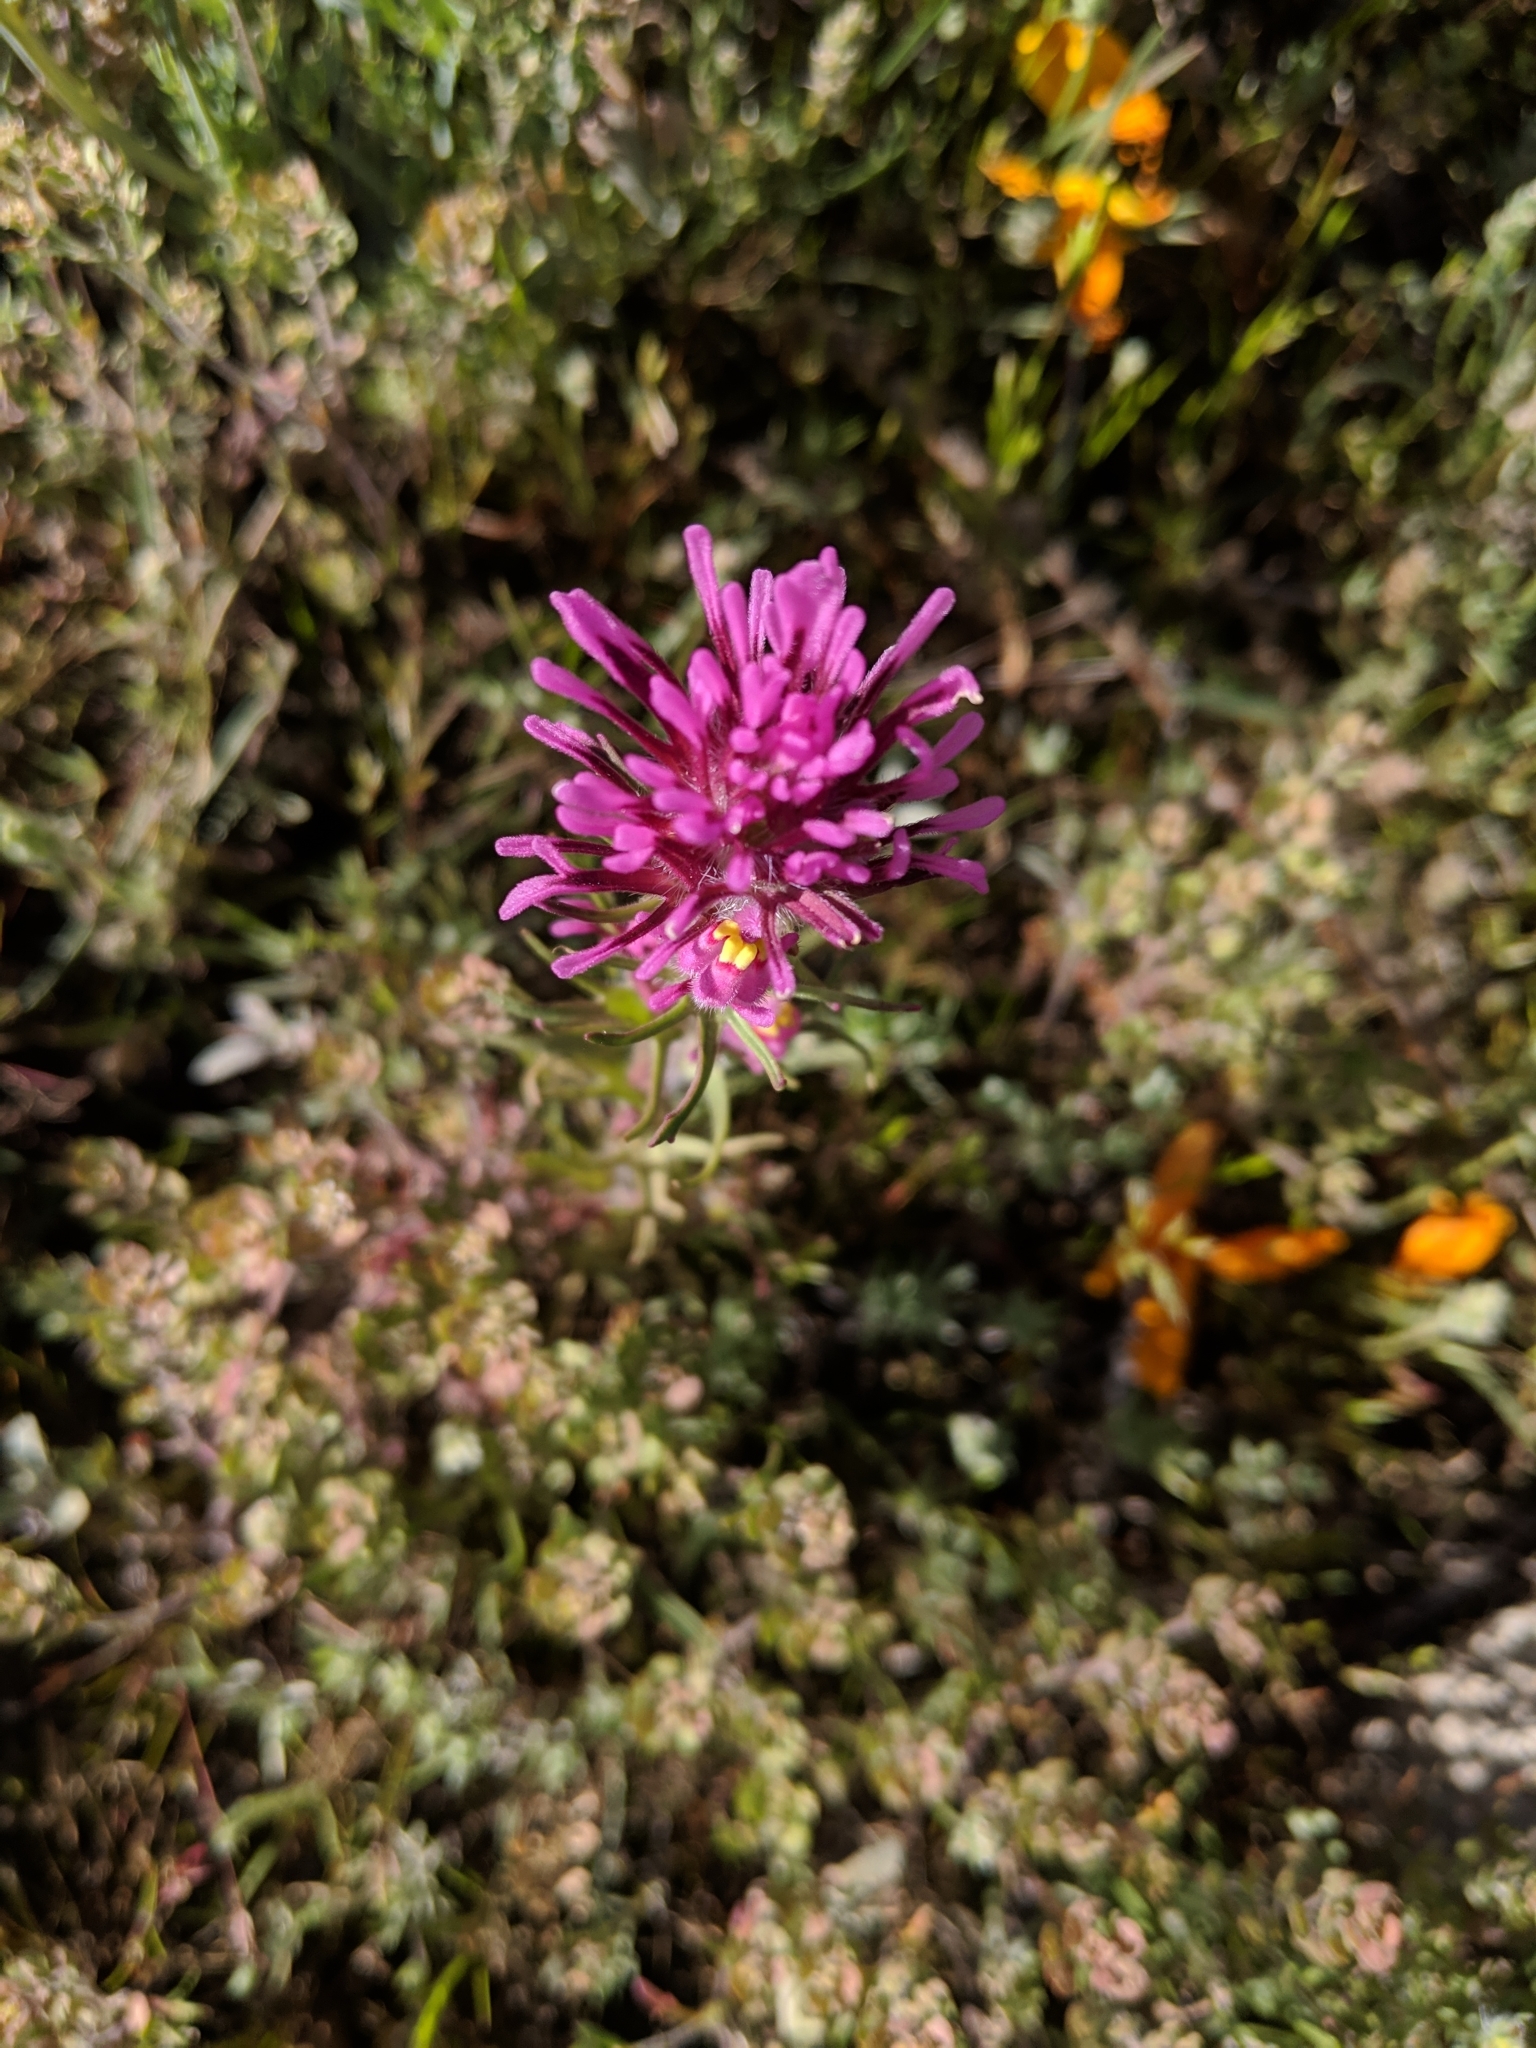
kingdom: Plantae
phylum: Tracheophyta
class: Magnoliopsida
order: Lamiales
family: Orobanchaceae
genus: Castilleja
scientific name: Castilleja exserta
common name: Purple owl-clover
